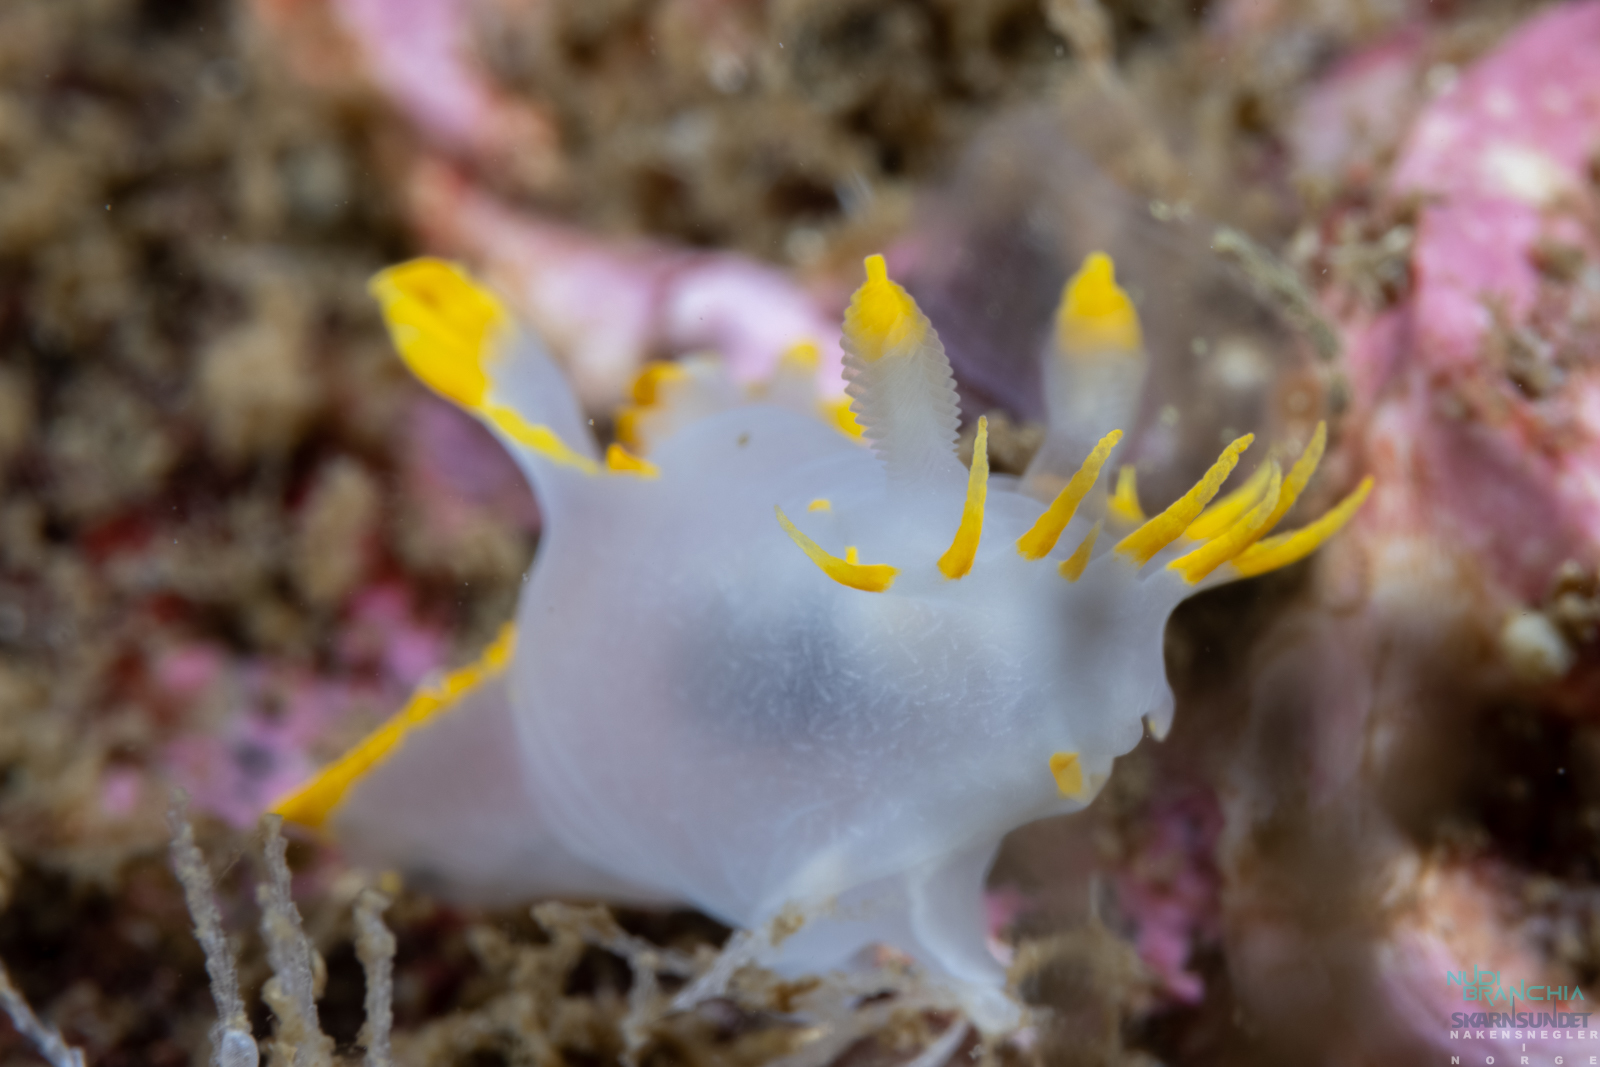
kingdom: Animalia
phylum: Mollusca
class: Gastropoda
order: Nudibranchia
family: Polyceridae
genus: Polycera
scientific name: Polycera faeroensis
